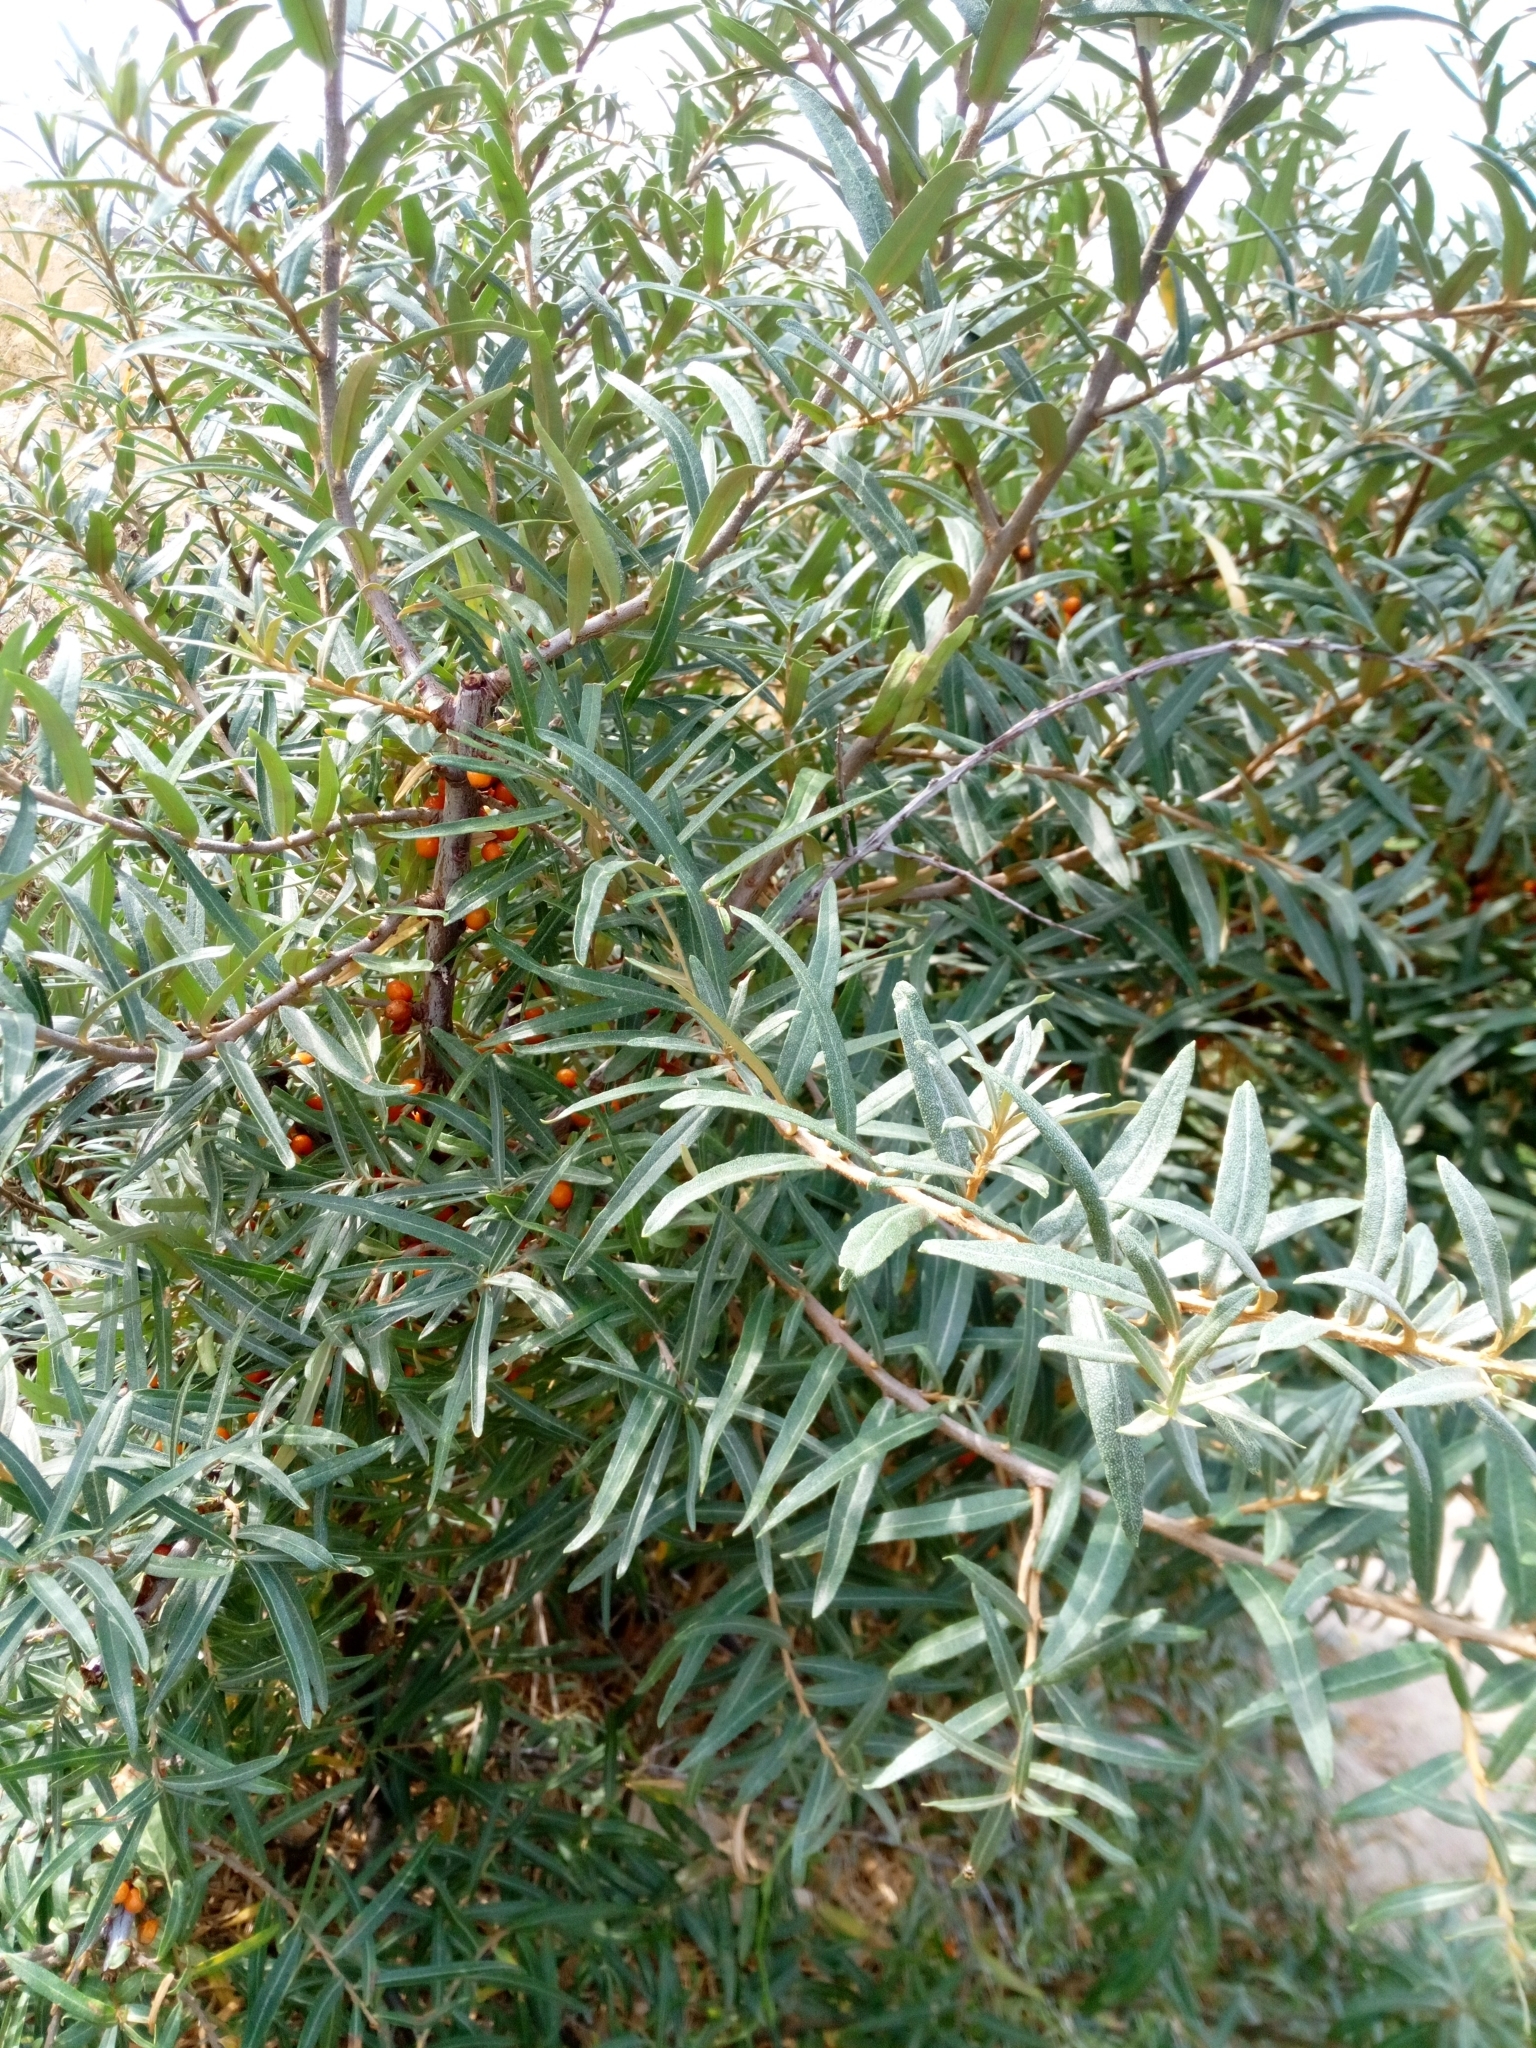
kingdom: Plantae
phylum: Tracheophyta
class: Magnoliopsida
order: Rosales
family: Elaeagnaceae
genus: Hippophae
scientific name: Hippophae rhamnoides
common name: Sea-buckthorn
